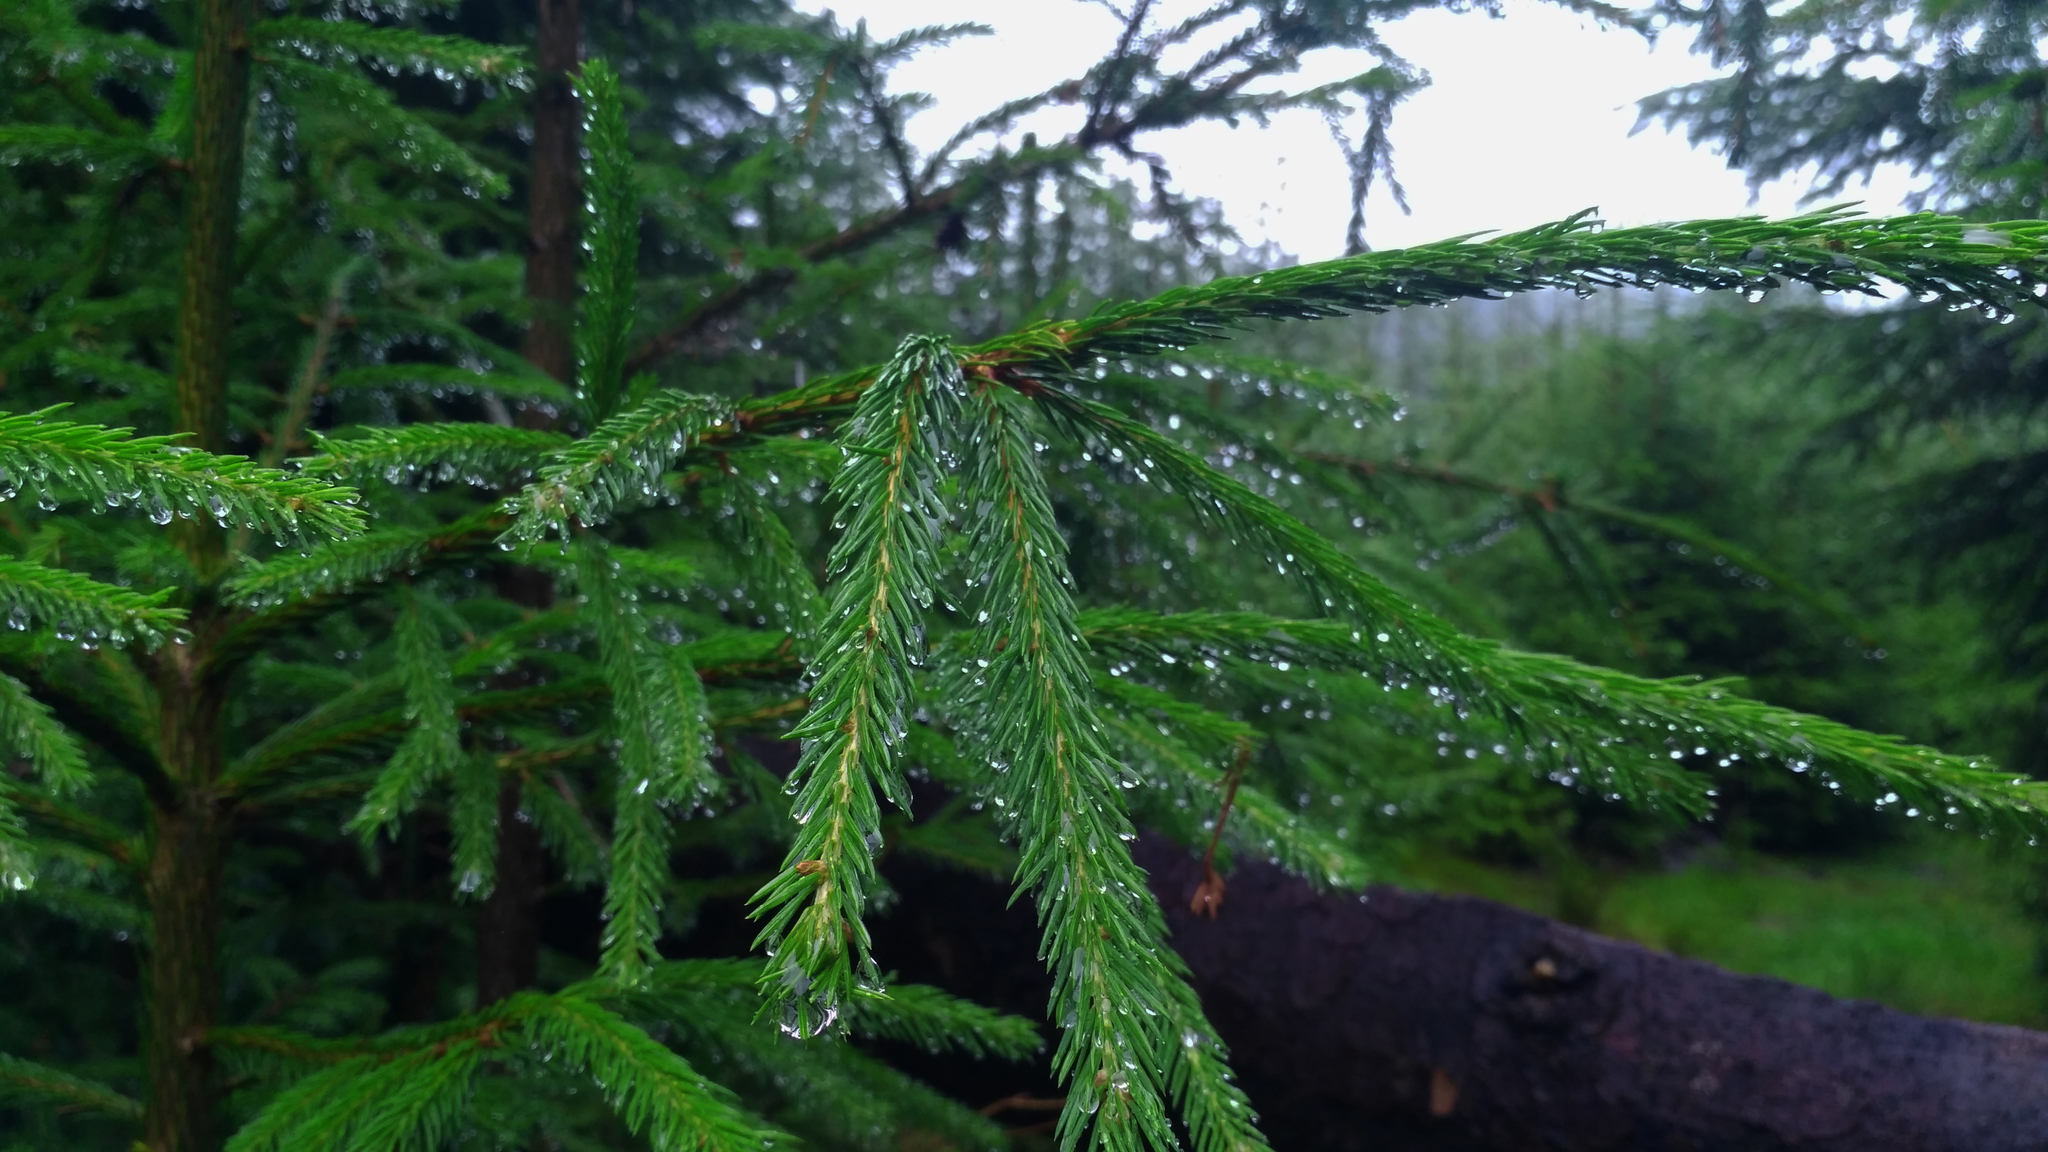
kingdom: Plantae
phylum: Tracheophyta
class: Pinopsida
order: Pinales
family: Pinaceae
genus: Picea
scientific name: Picea abies
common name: Norway spruce
